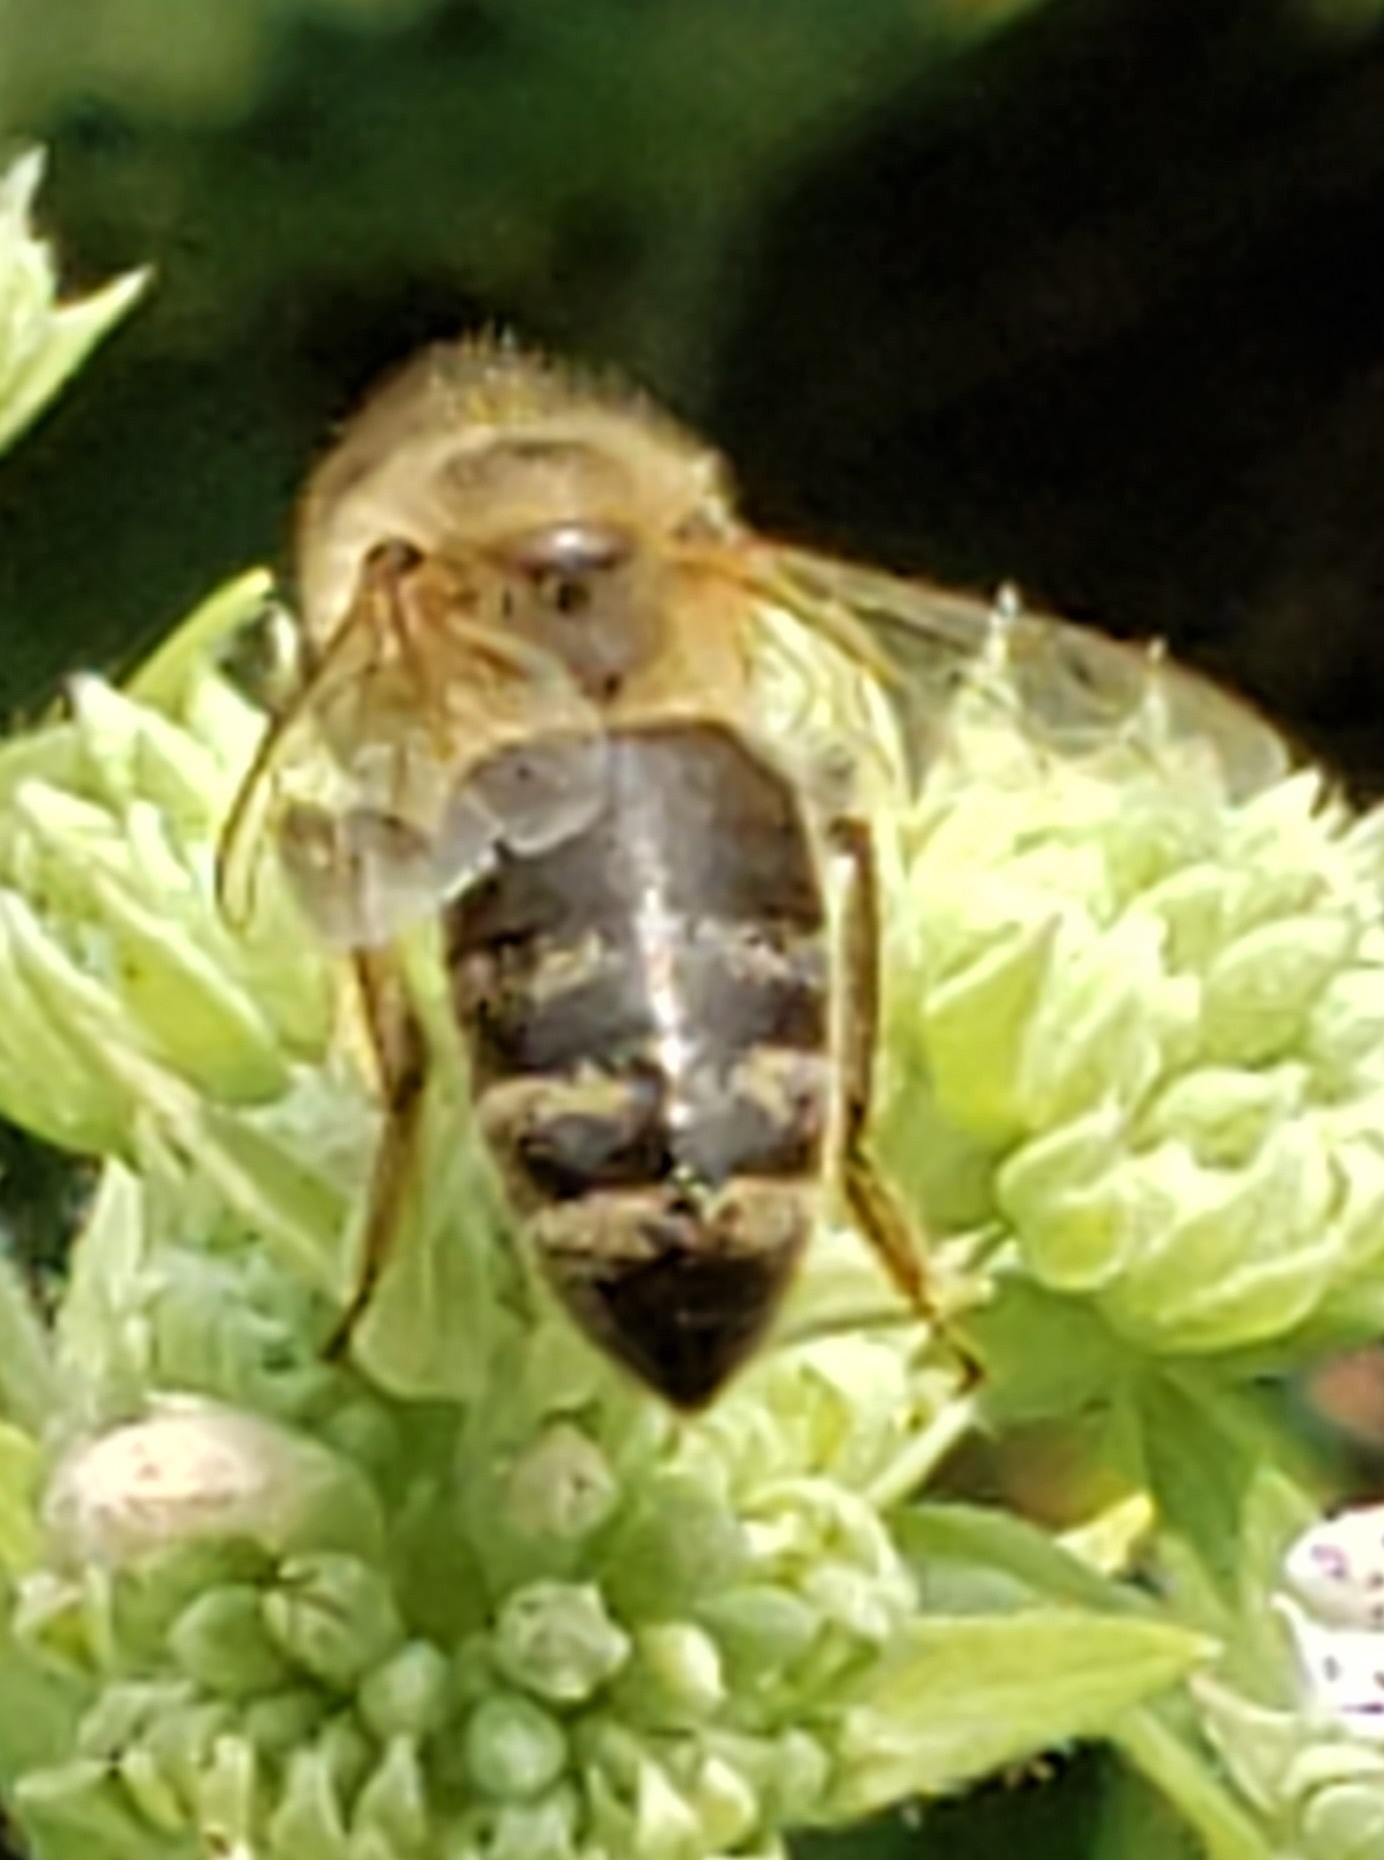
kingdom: Animalia
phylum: Arthropoda
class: Insecta
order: Hymenoptera
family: Apidae
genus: Apis
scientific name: Apis mellifera
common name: Honey bee
